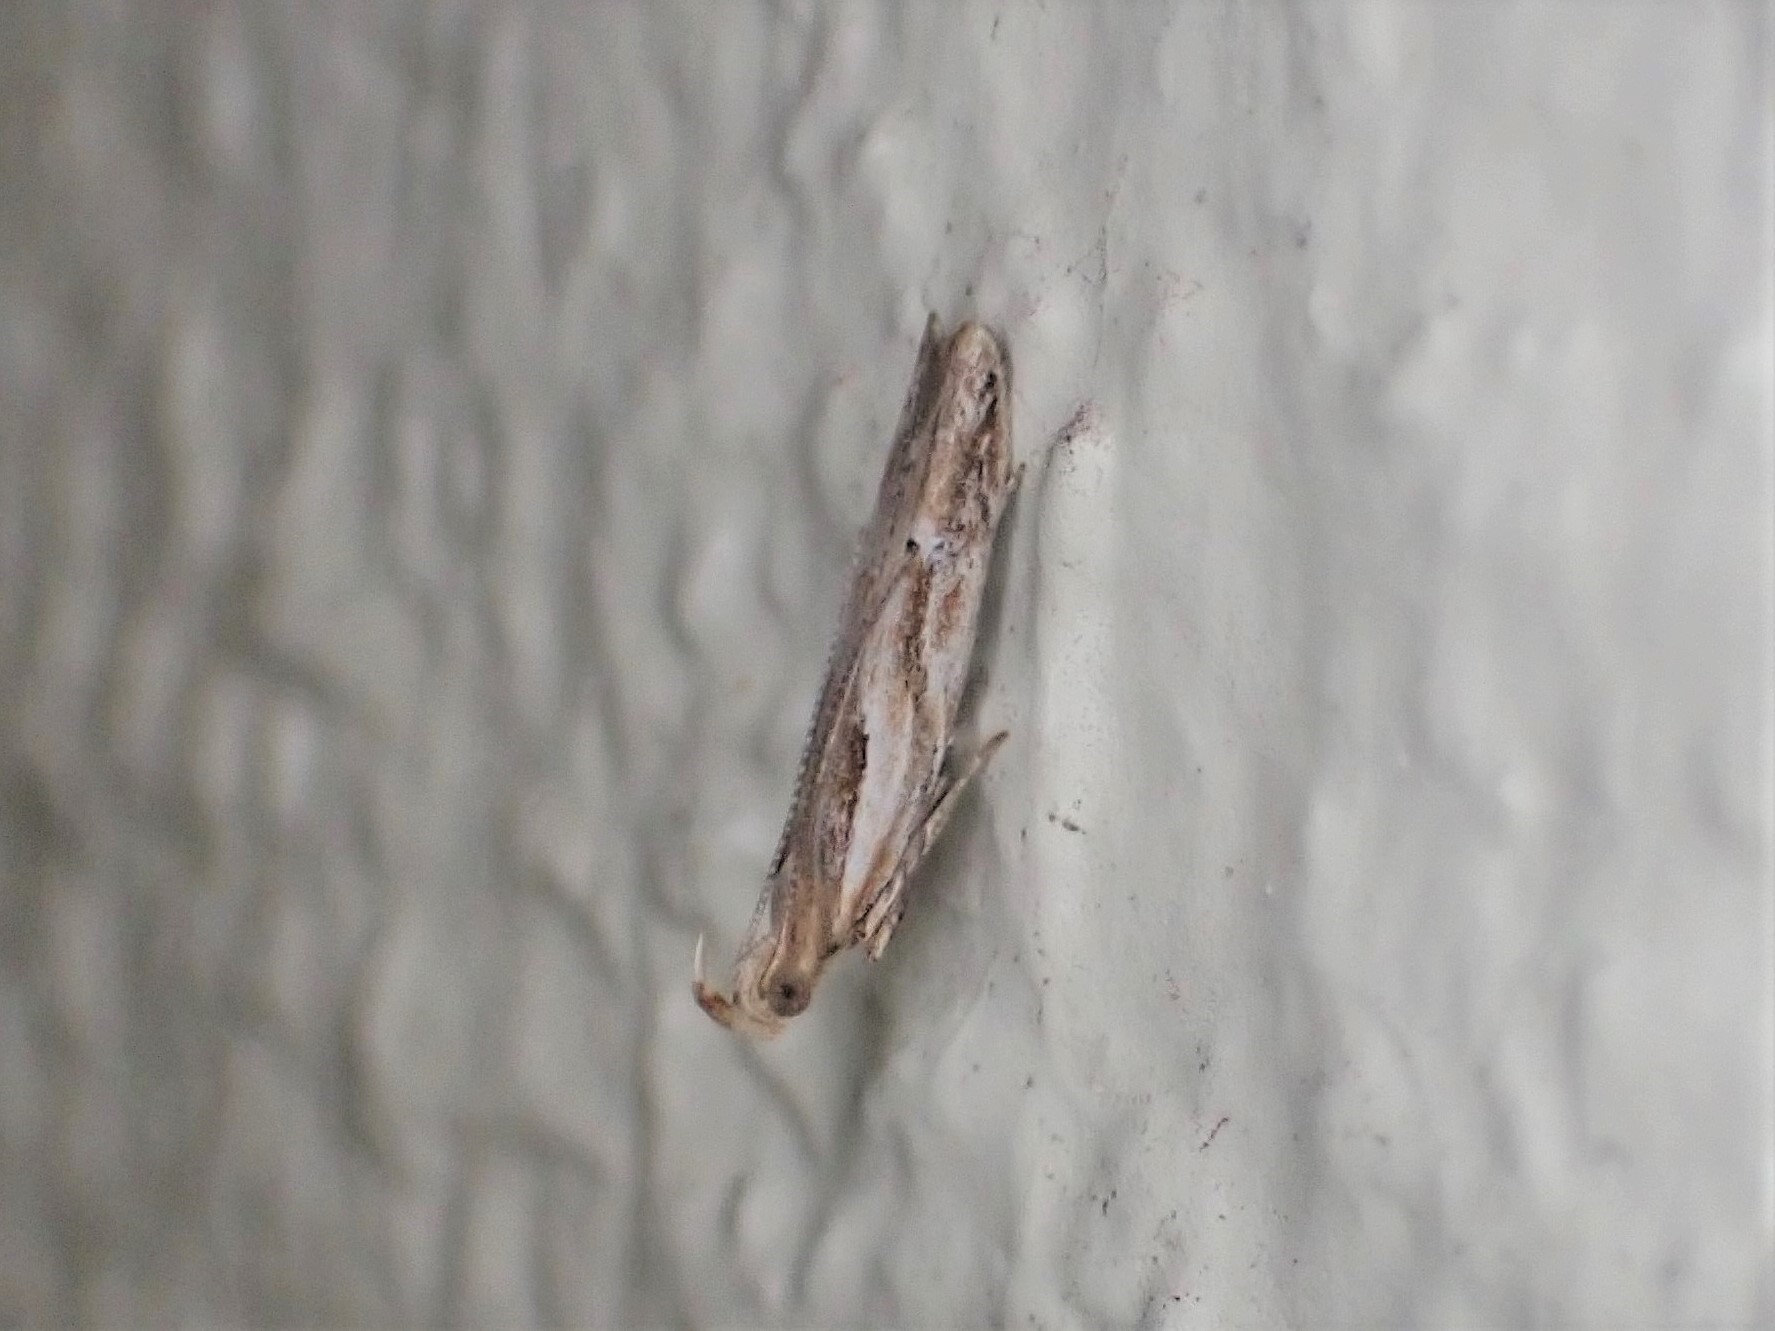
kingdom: Animalia
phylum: Arthropoda
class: Insecta
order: Lepidoptera
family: Depressariidae
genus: Eutorna
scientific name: Eutorna symmorpha
